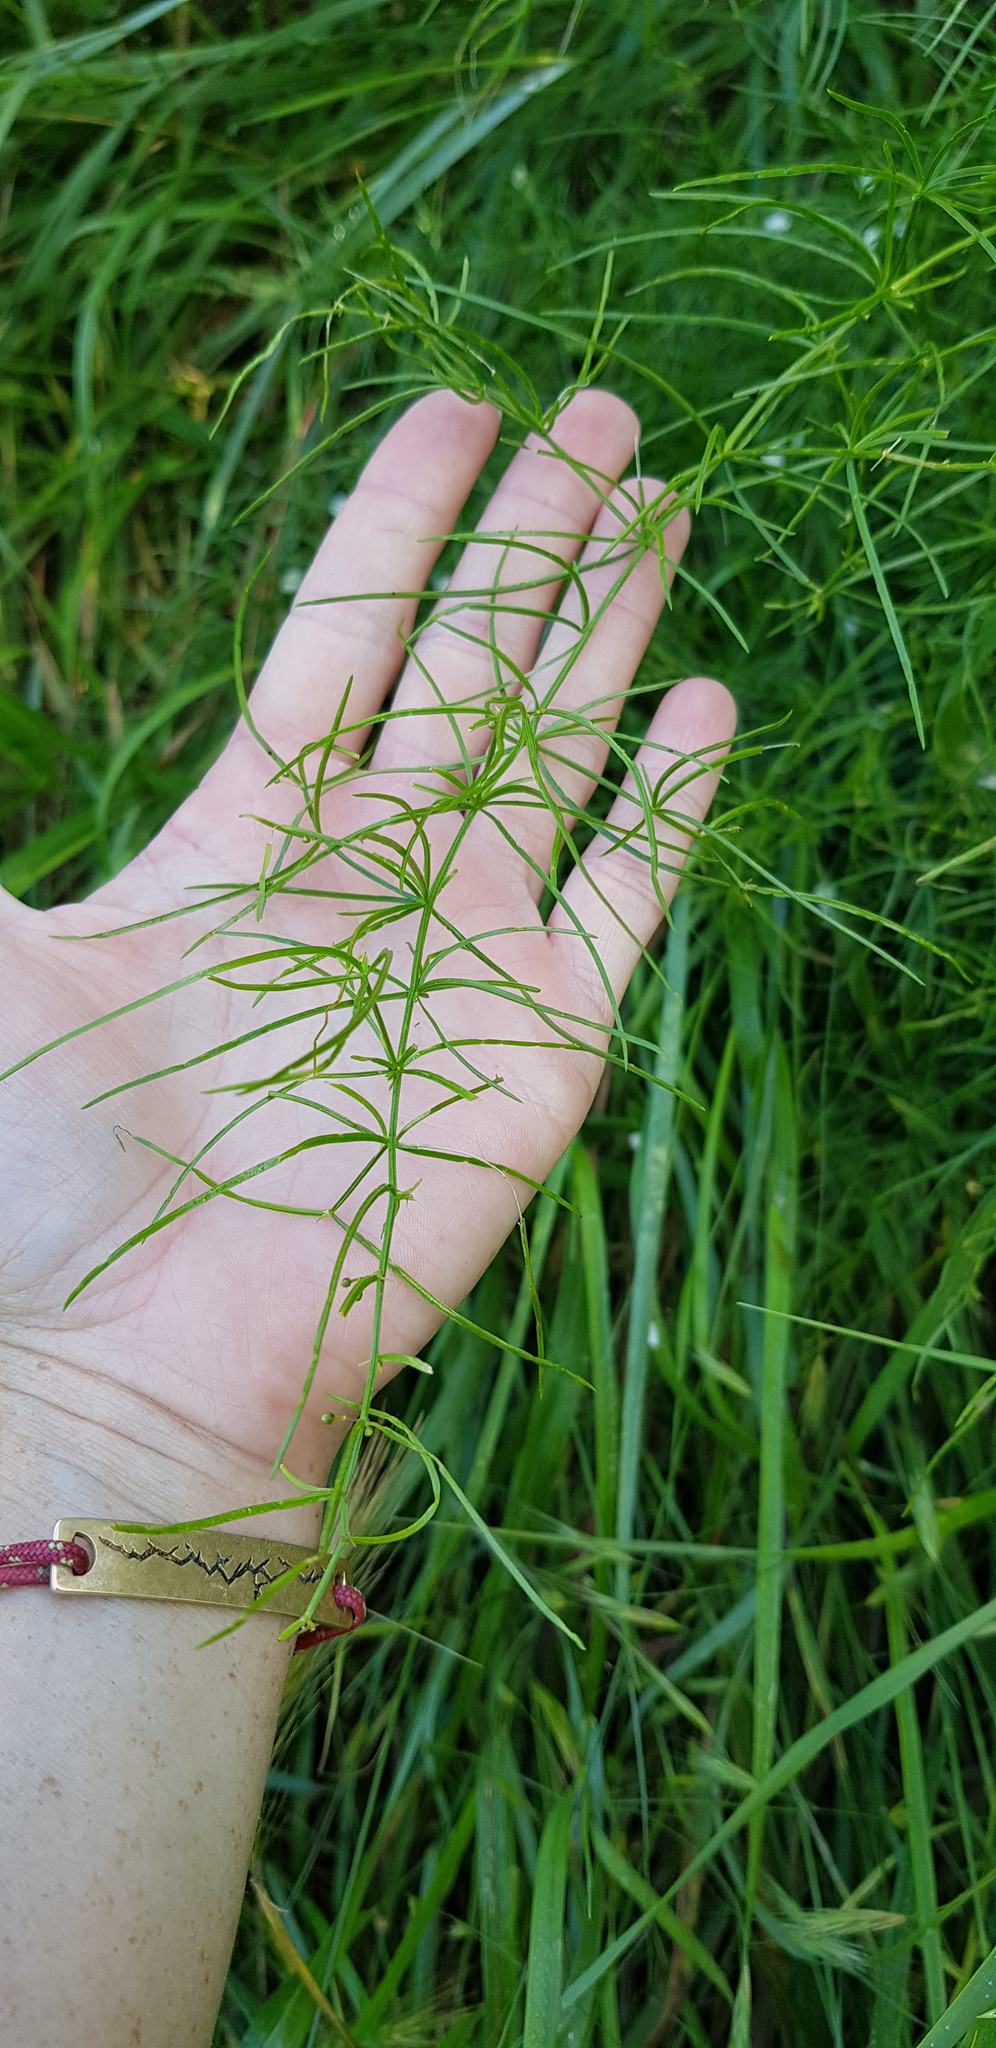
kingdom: Plantae
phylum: Tracheophyta
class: Liliopsida
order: Asparagales
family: Asparagaceae
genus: Asparagus
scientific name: Asparagus verticillatus
